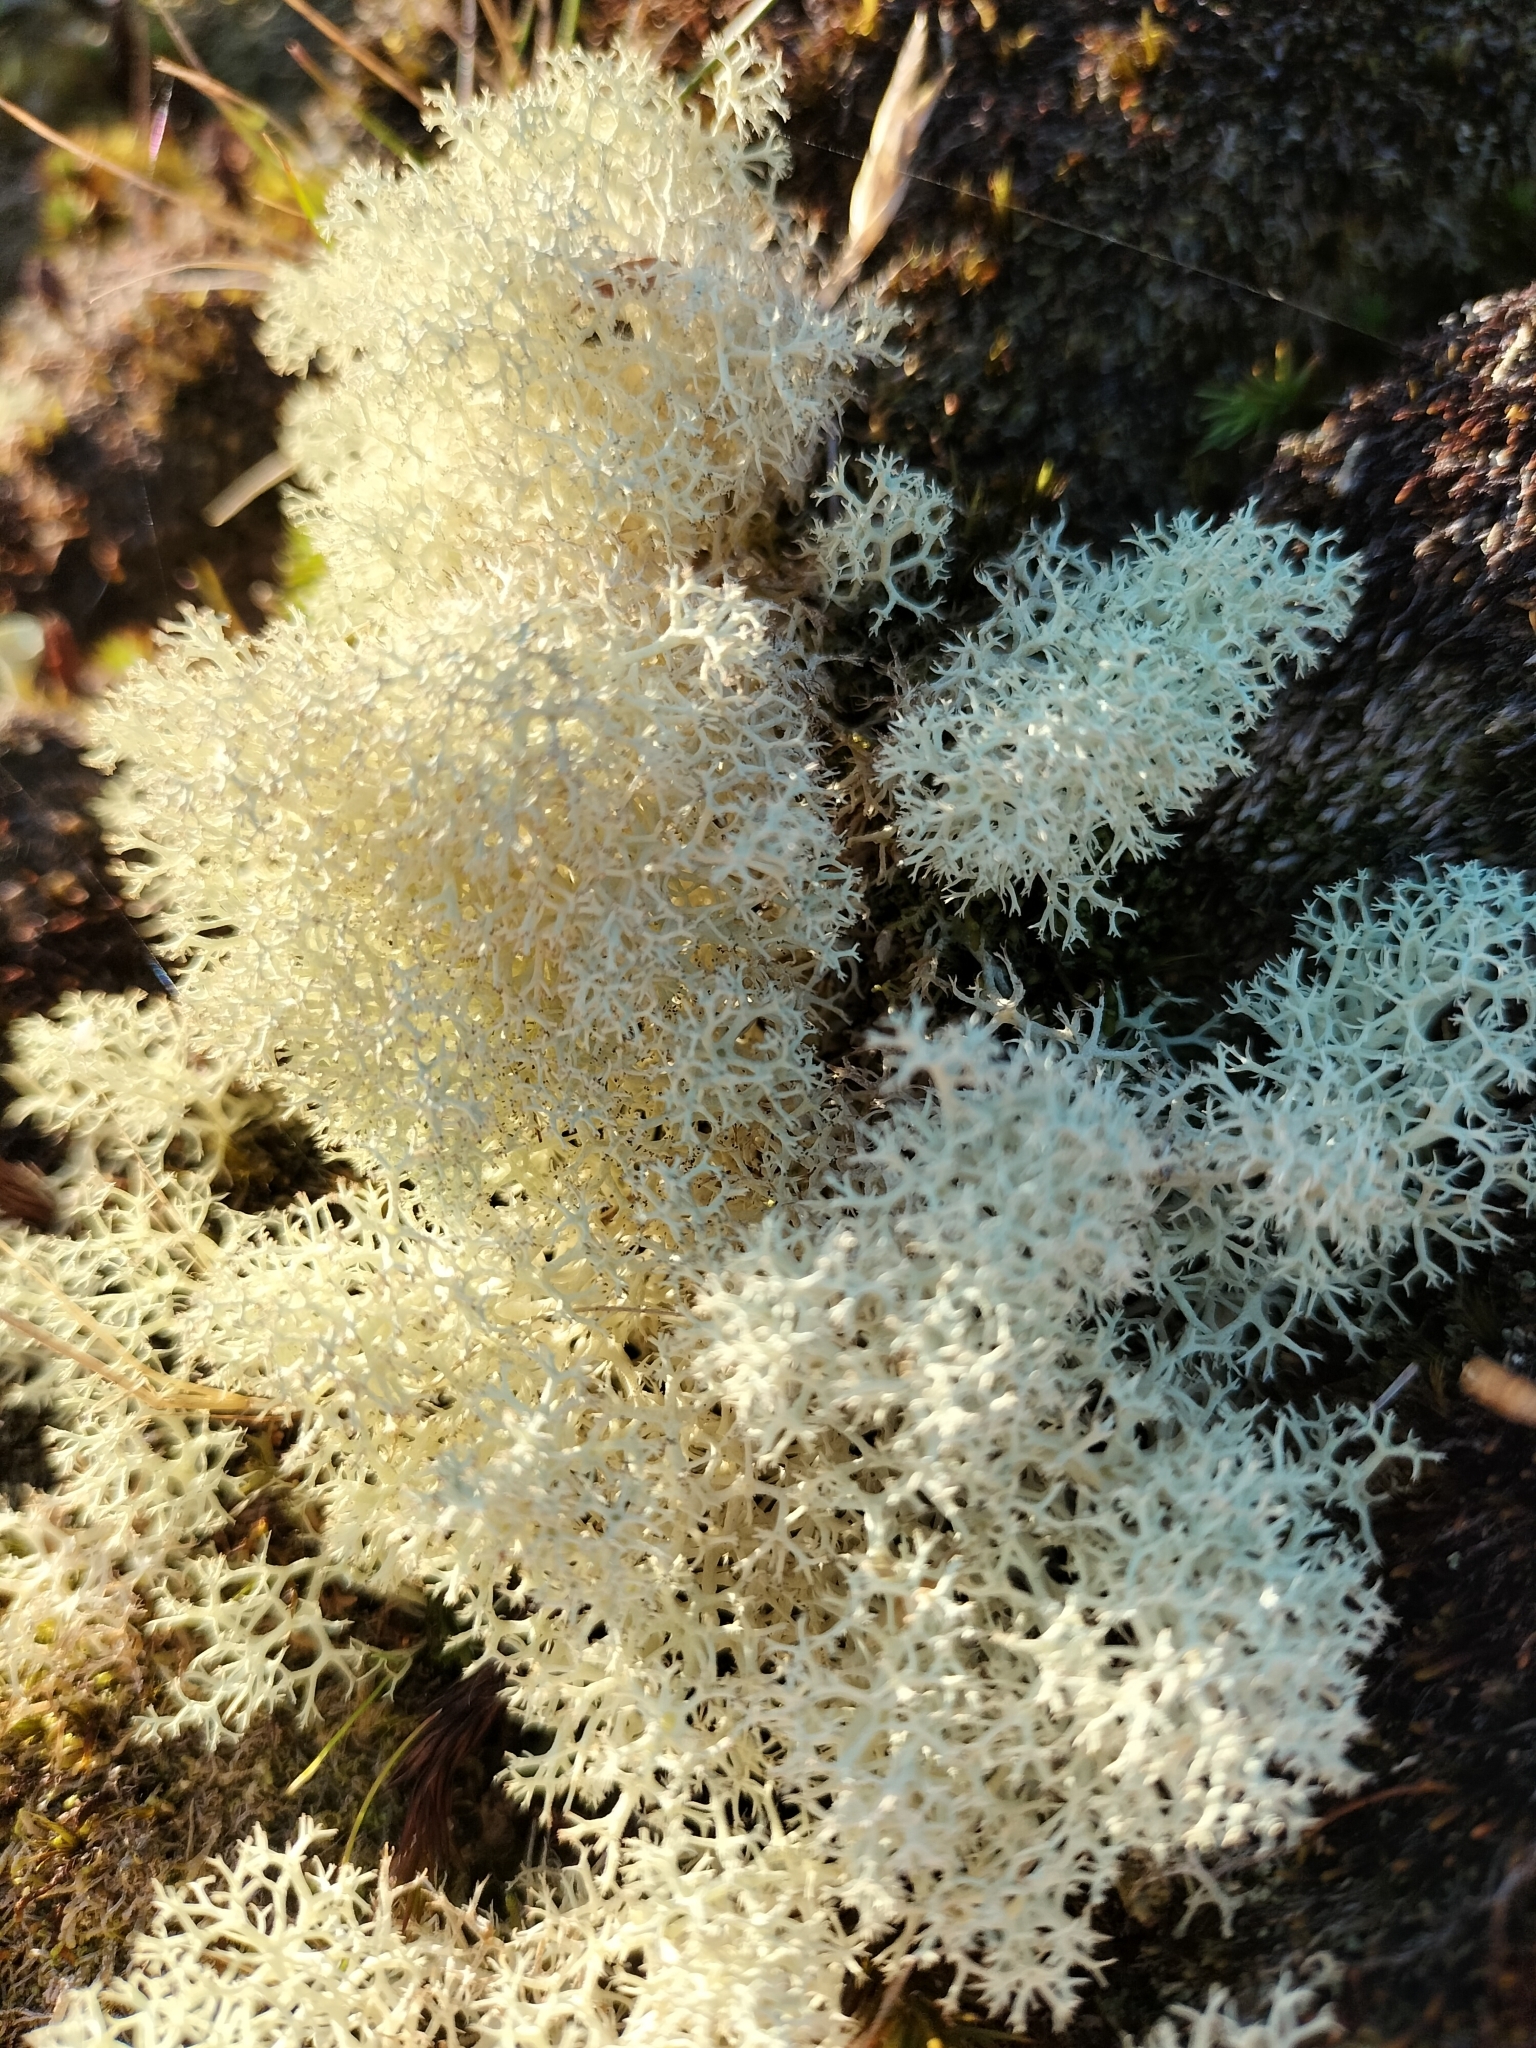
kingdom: Fungi
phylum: Ascomycota
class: Lecanoromycetes
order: Lecanorales
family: Cladoniaceae
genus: Cladonia
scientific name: Cladonia confusa
